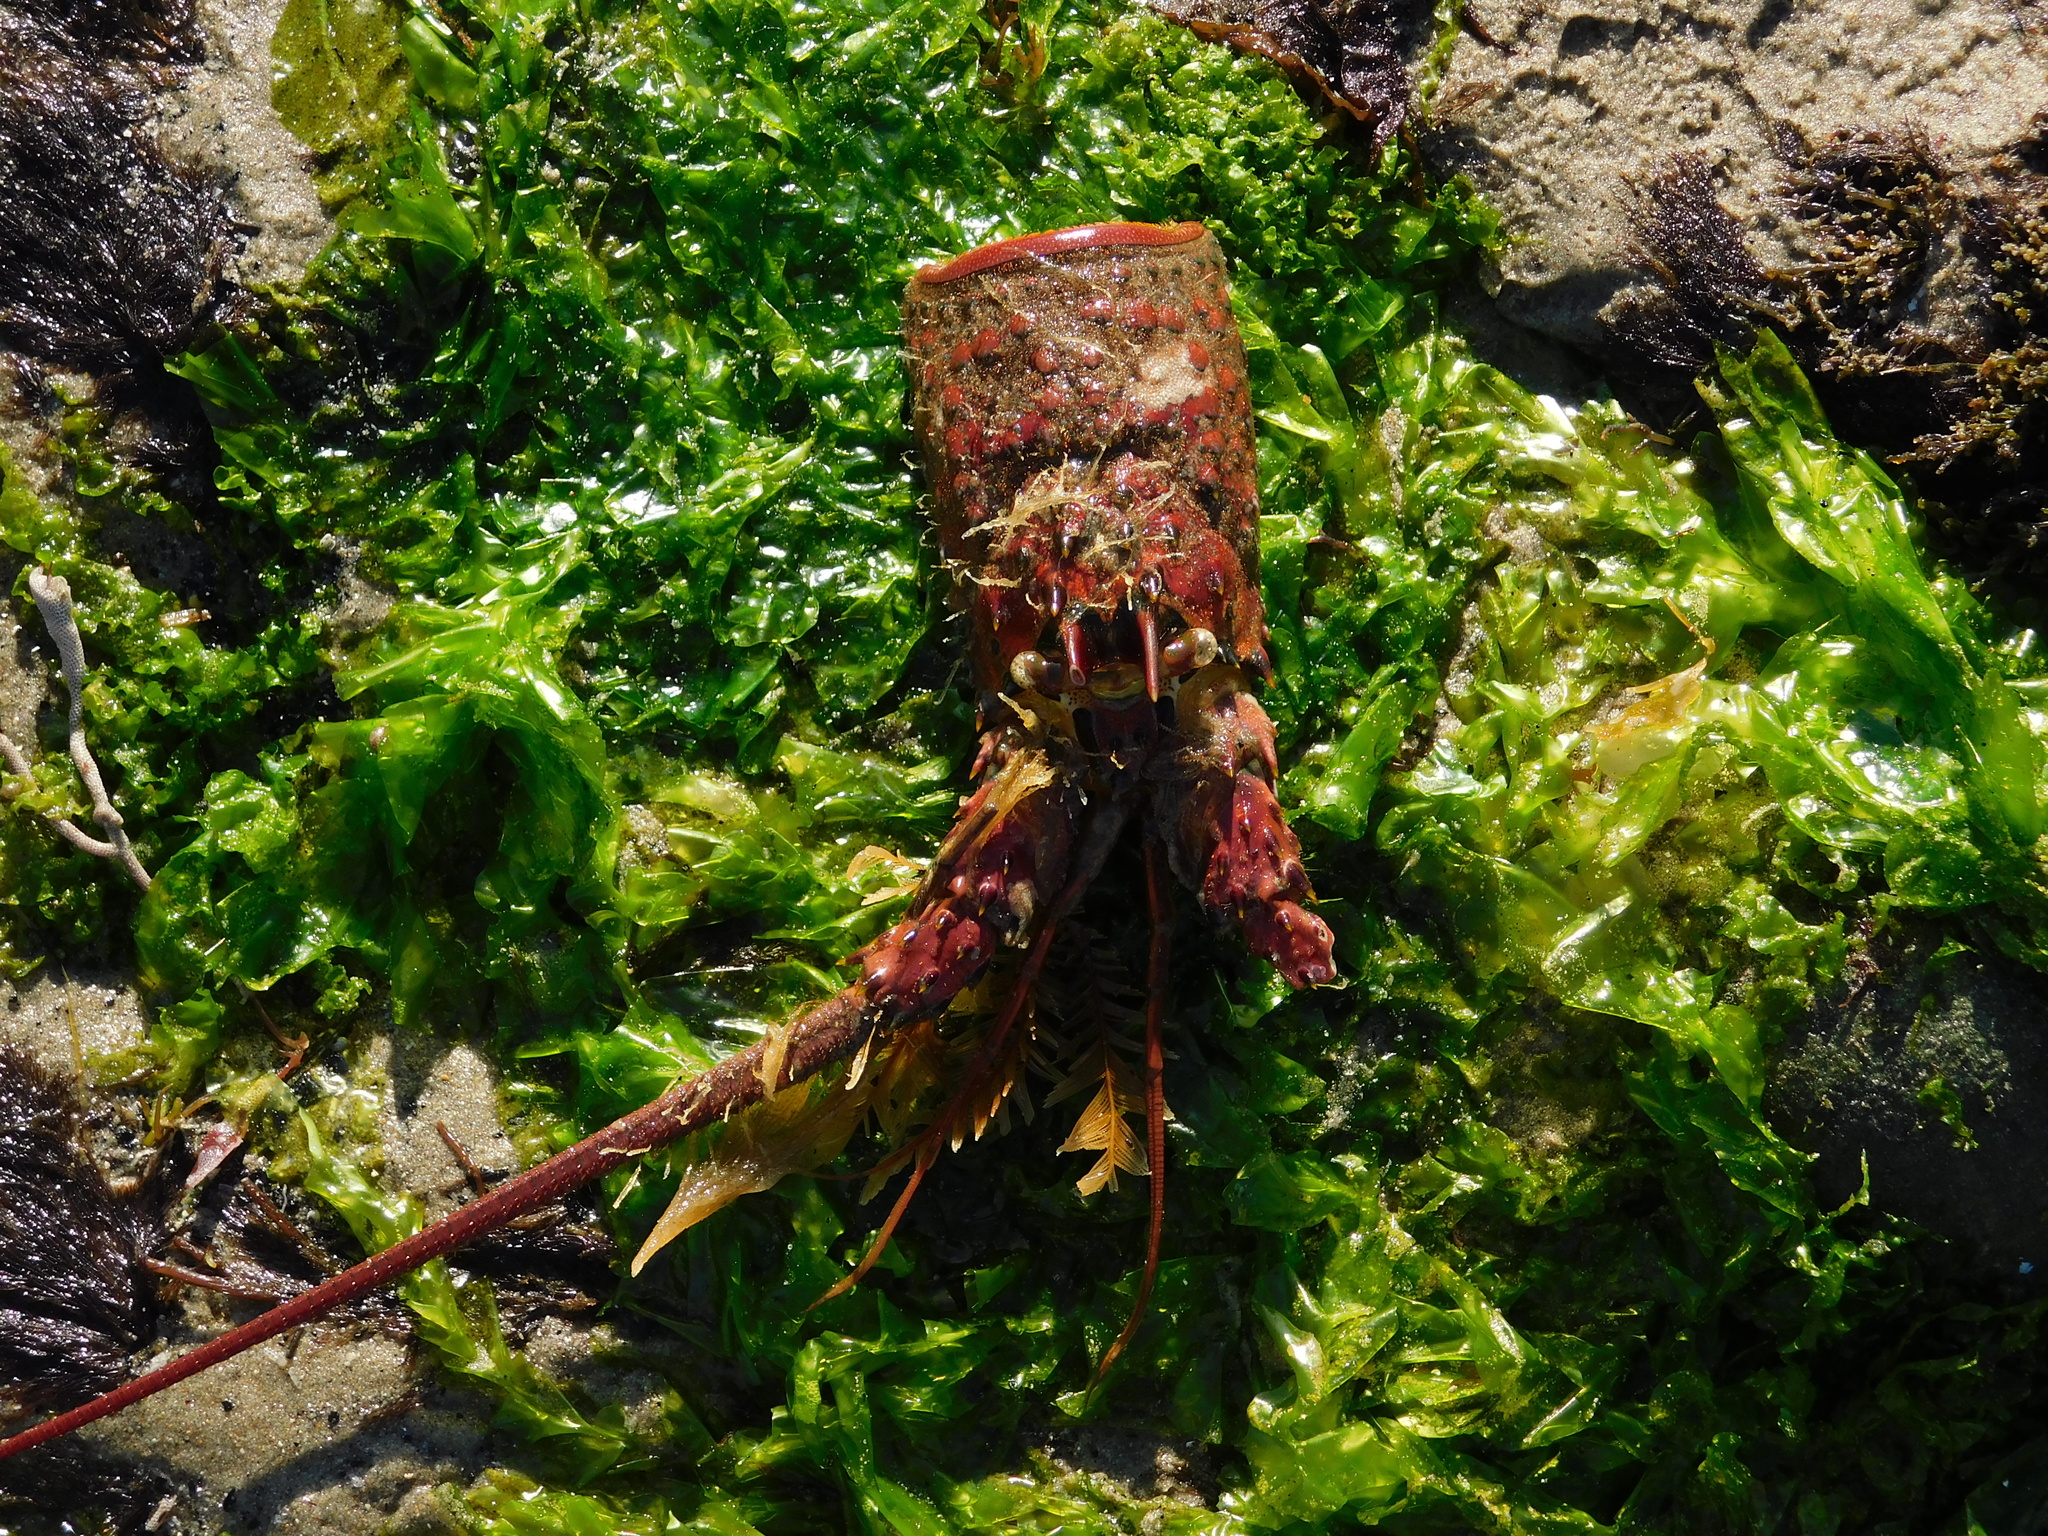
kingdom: Animalia
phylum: Arthropoda
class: Malacostraca
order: Decapoda
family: Palinuridae
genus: Panulirus
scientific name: Panulirus interruptus
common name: California spiny lobster
